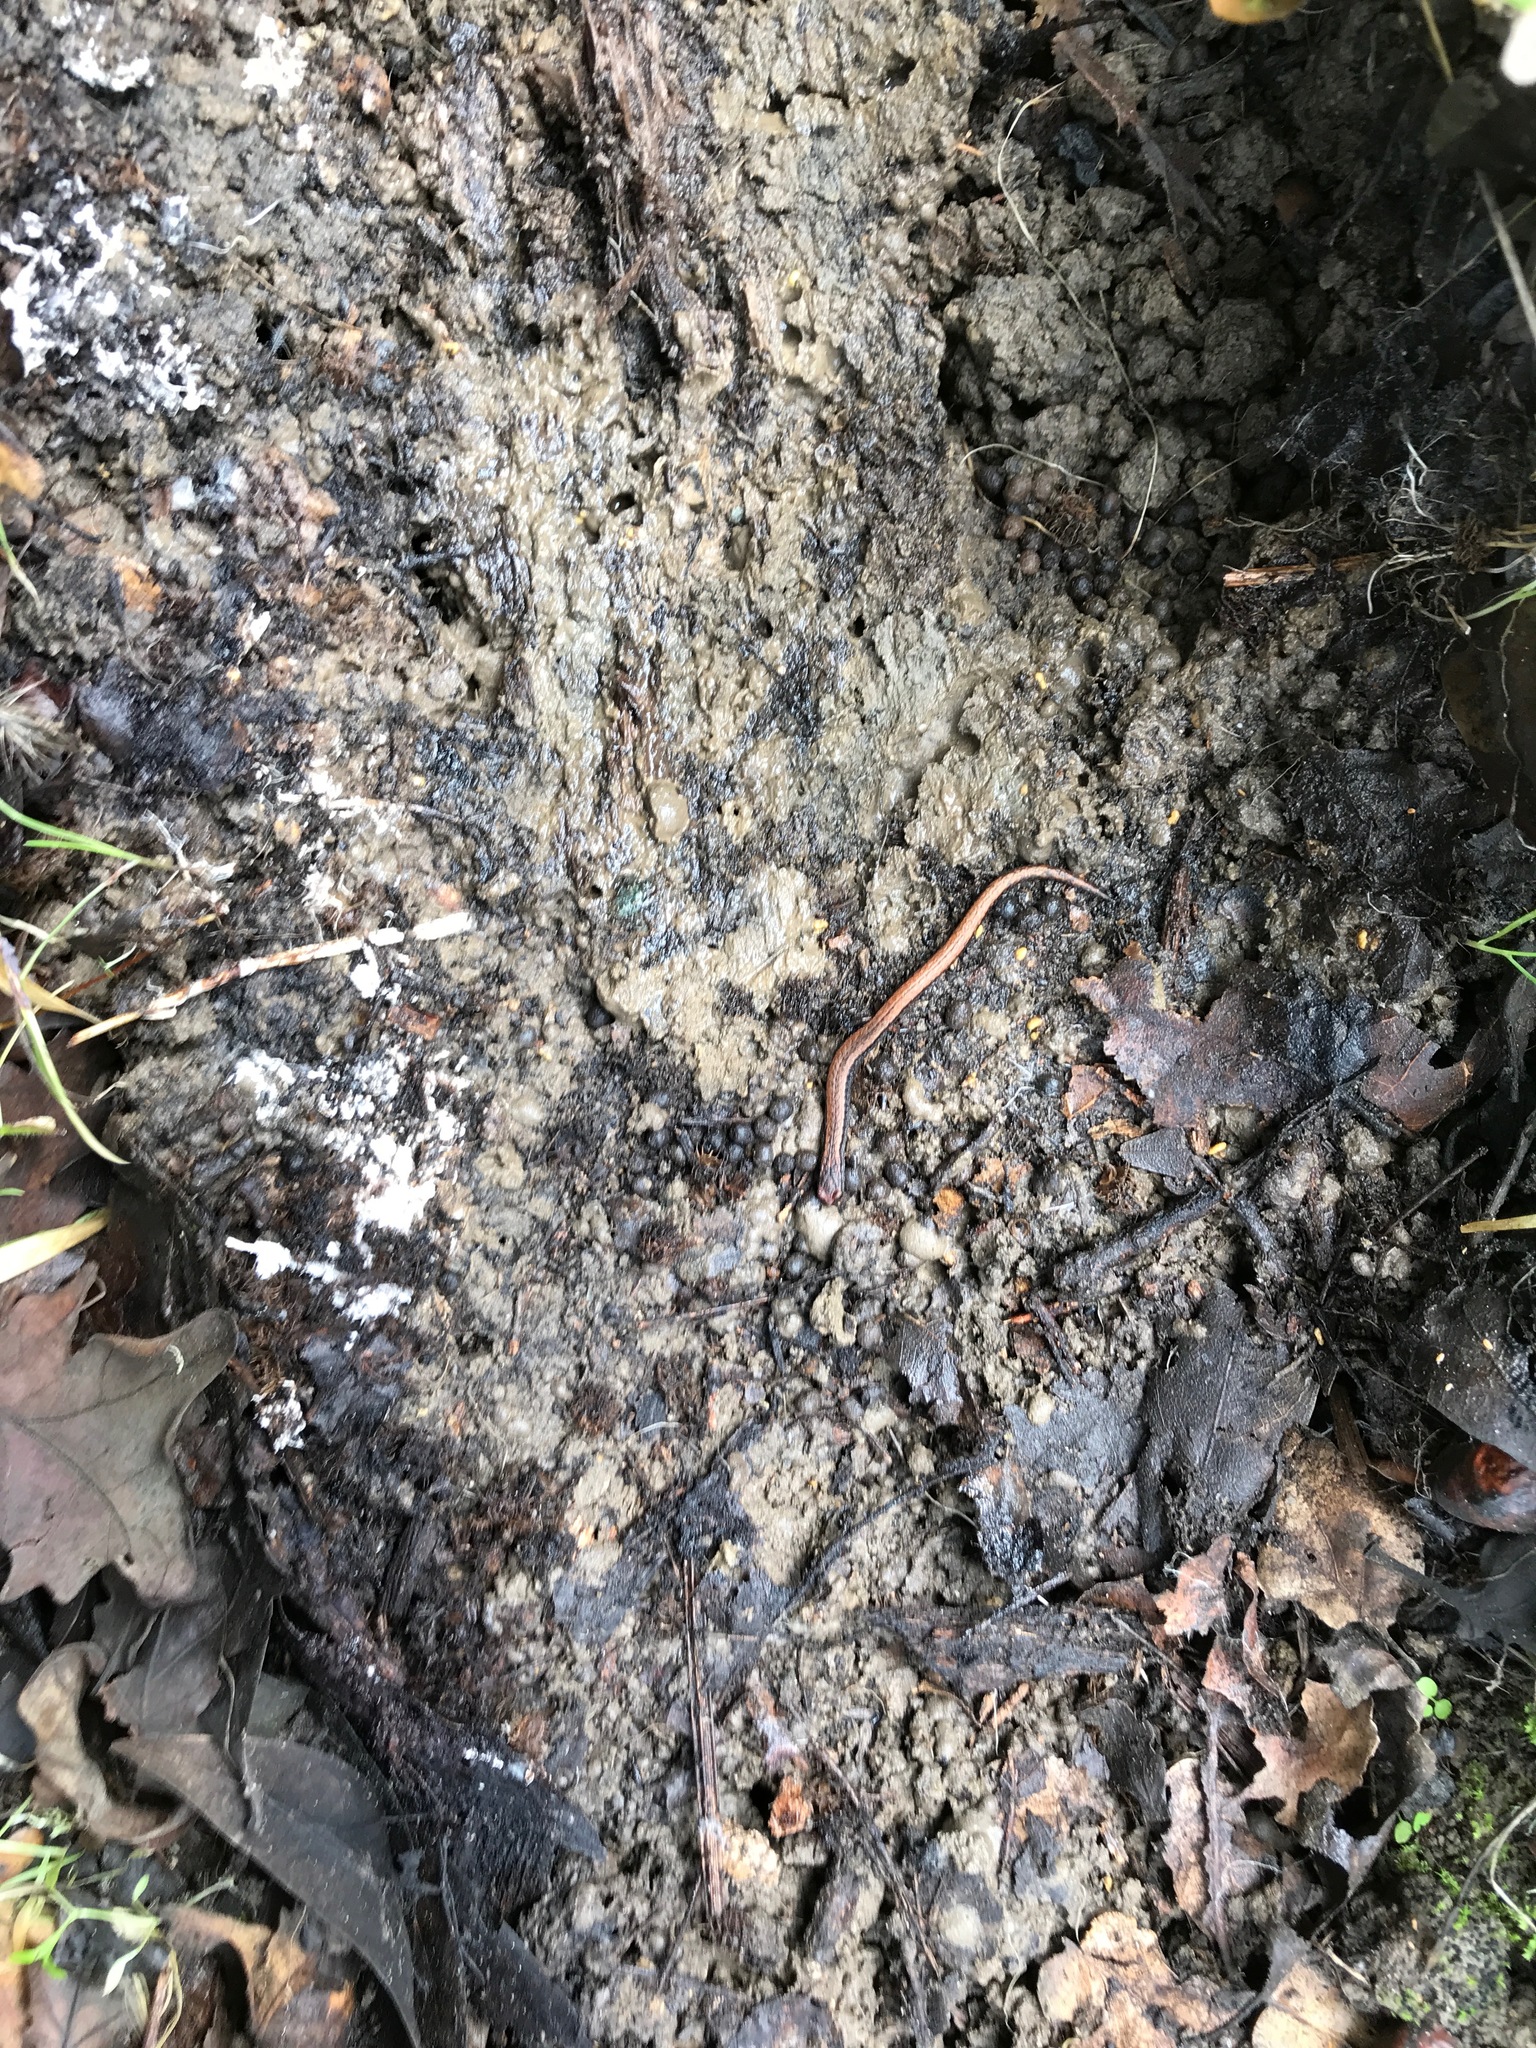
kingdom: Animalia
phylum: Chordata
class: Amphibia
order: Caudata
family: Plethodontidae
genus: Batrachoseps
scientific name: Batrachoseps attenuatus
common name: California slender salamander
